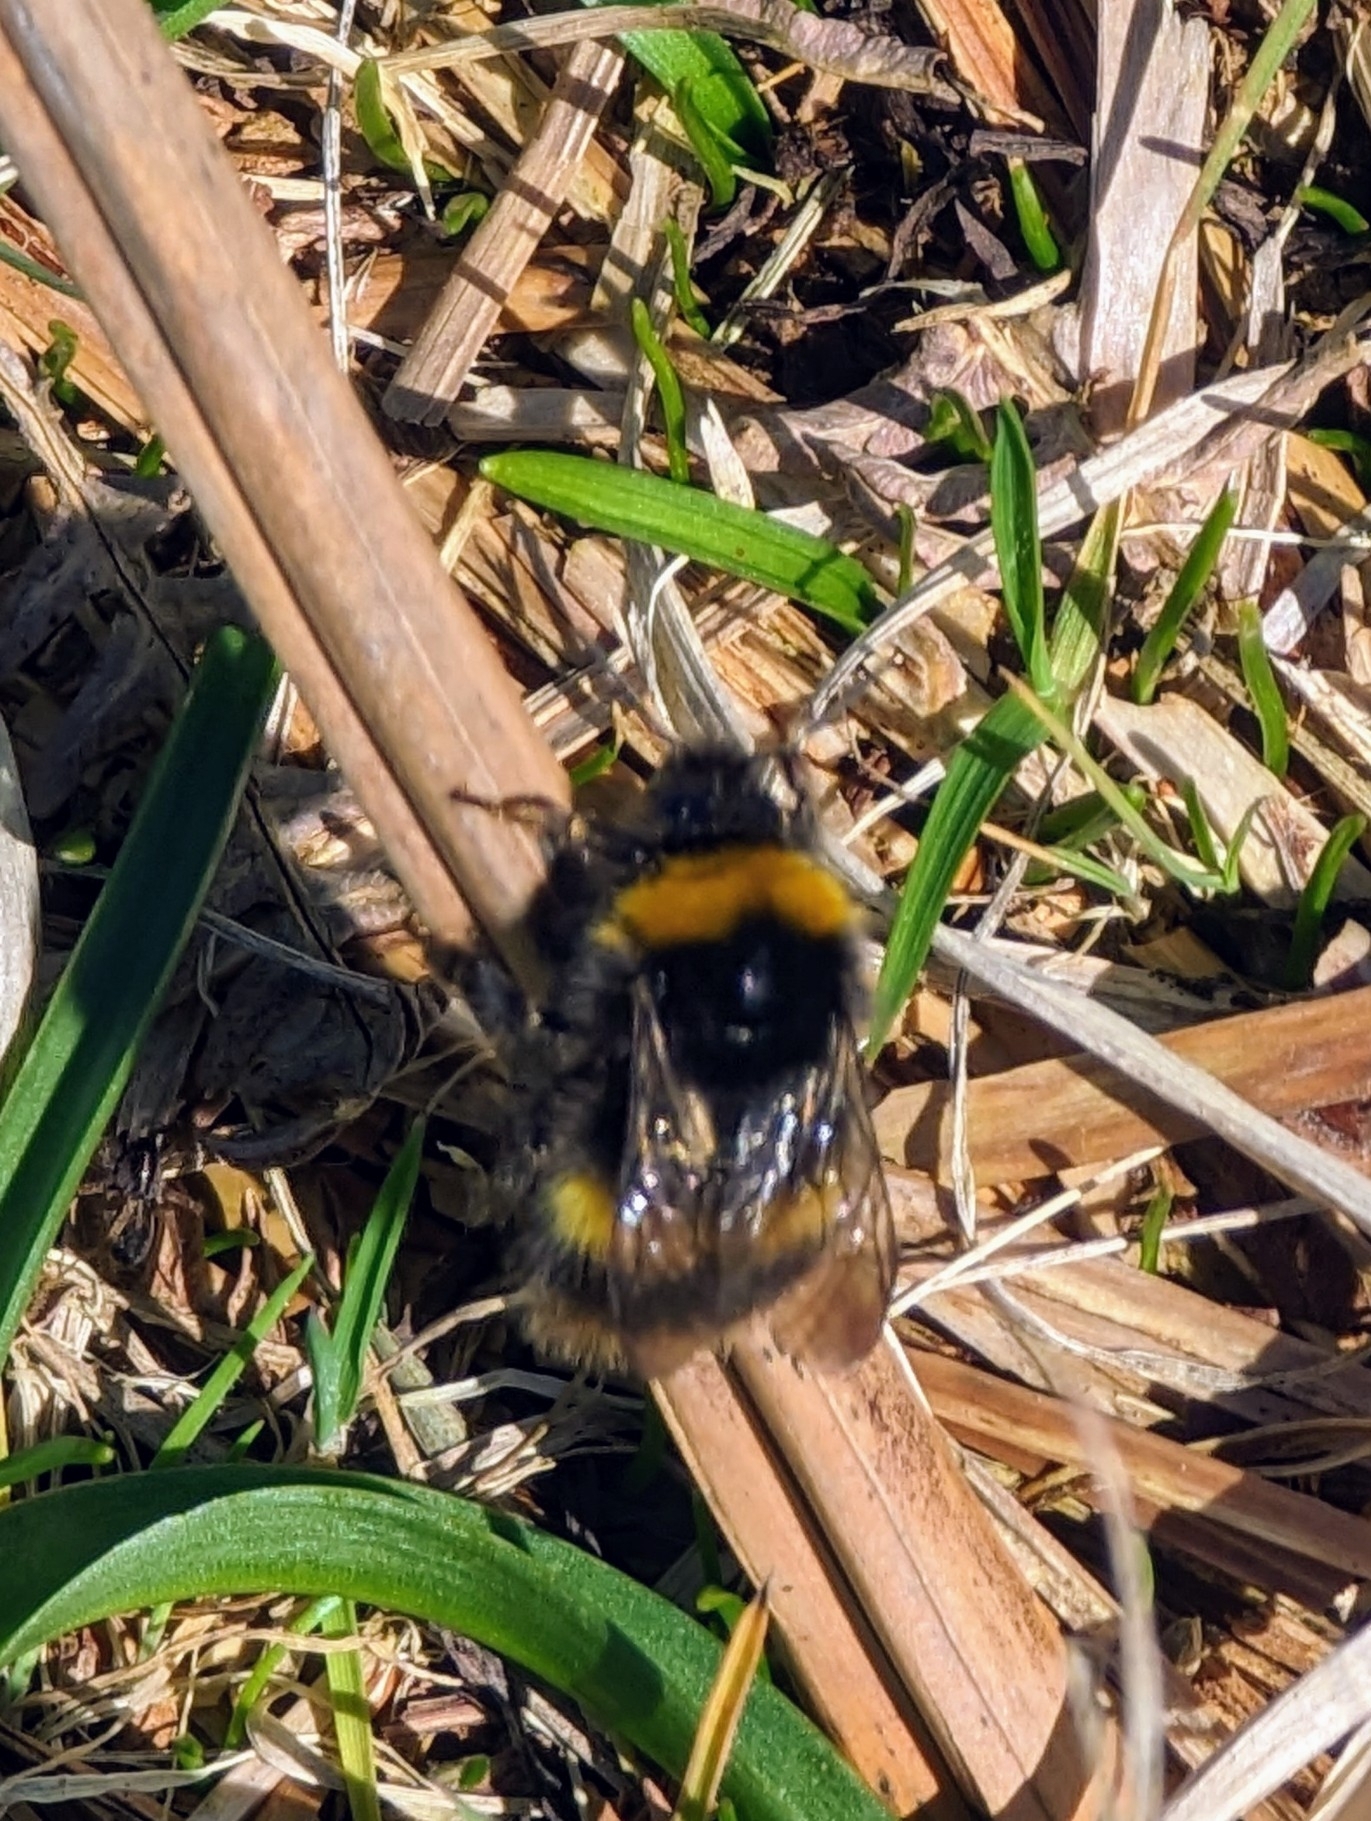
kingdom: Animalia
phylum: Arthropoda
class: Insecta
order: Hymenoptera
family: Apidae
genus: Bombus
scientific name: Bombus pratorum
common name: Early humble-bee
